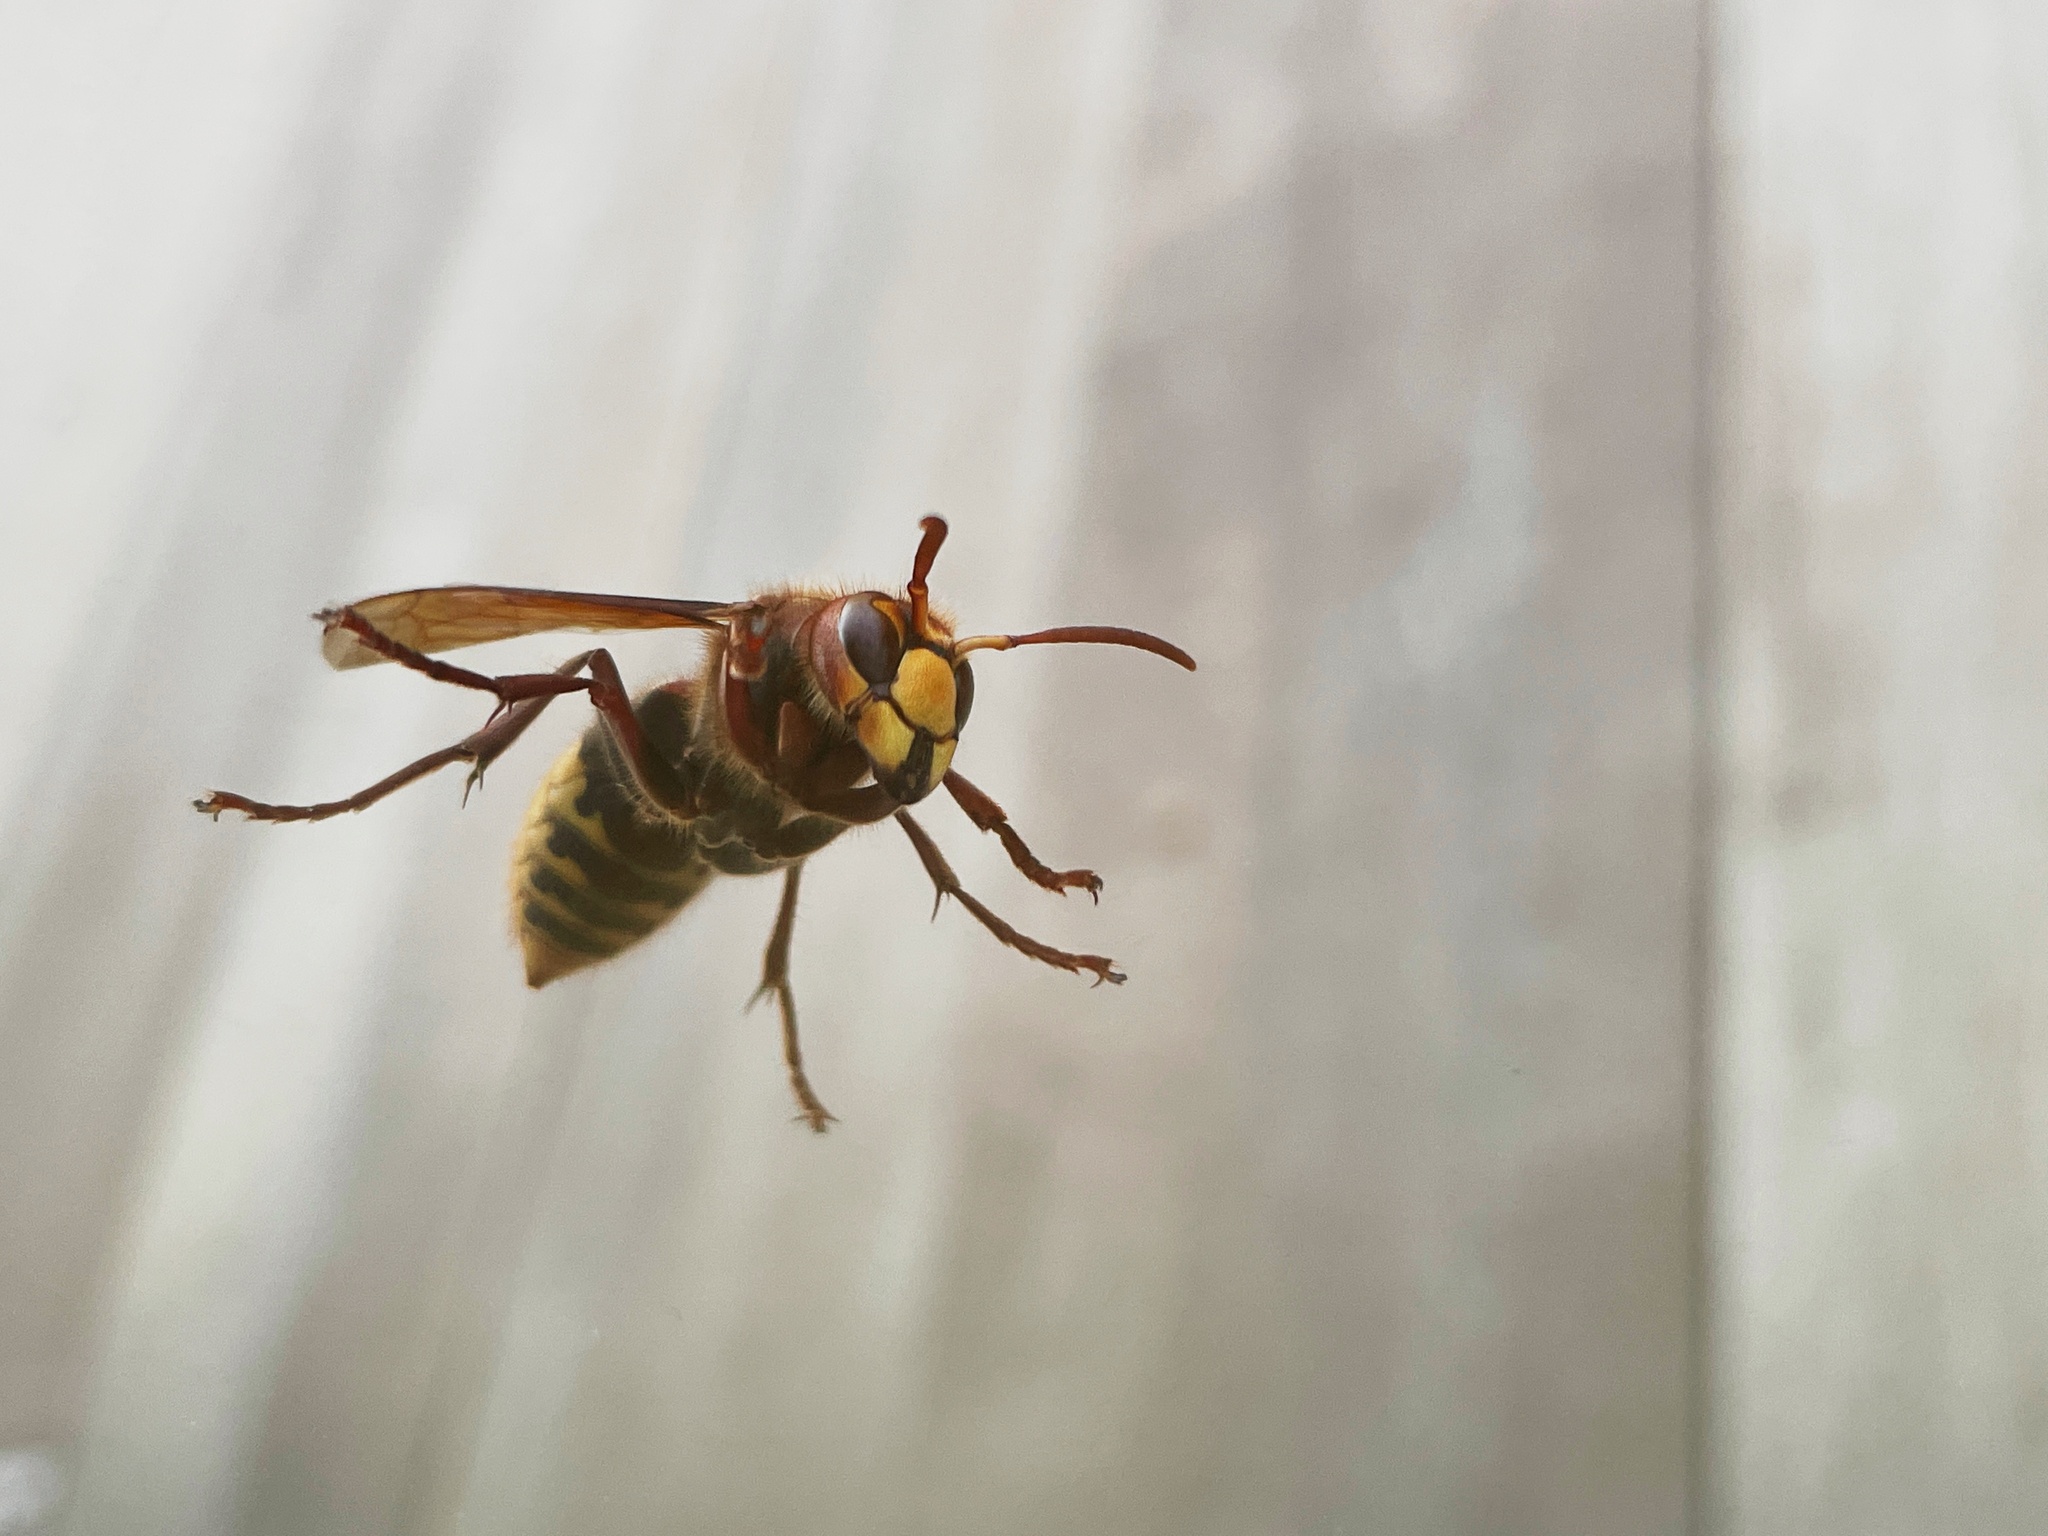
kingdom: Animalia
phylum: Arthropoda
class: Insecta
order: Hymenoptera
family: Vespidae
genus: Vespa
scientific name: Vespa crabro
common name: Hornet
